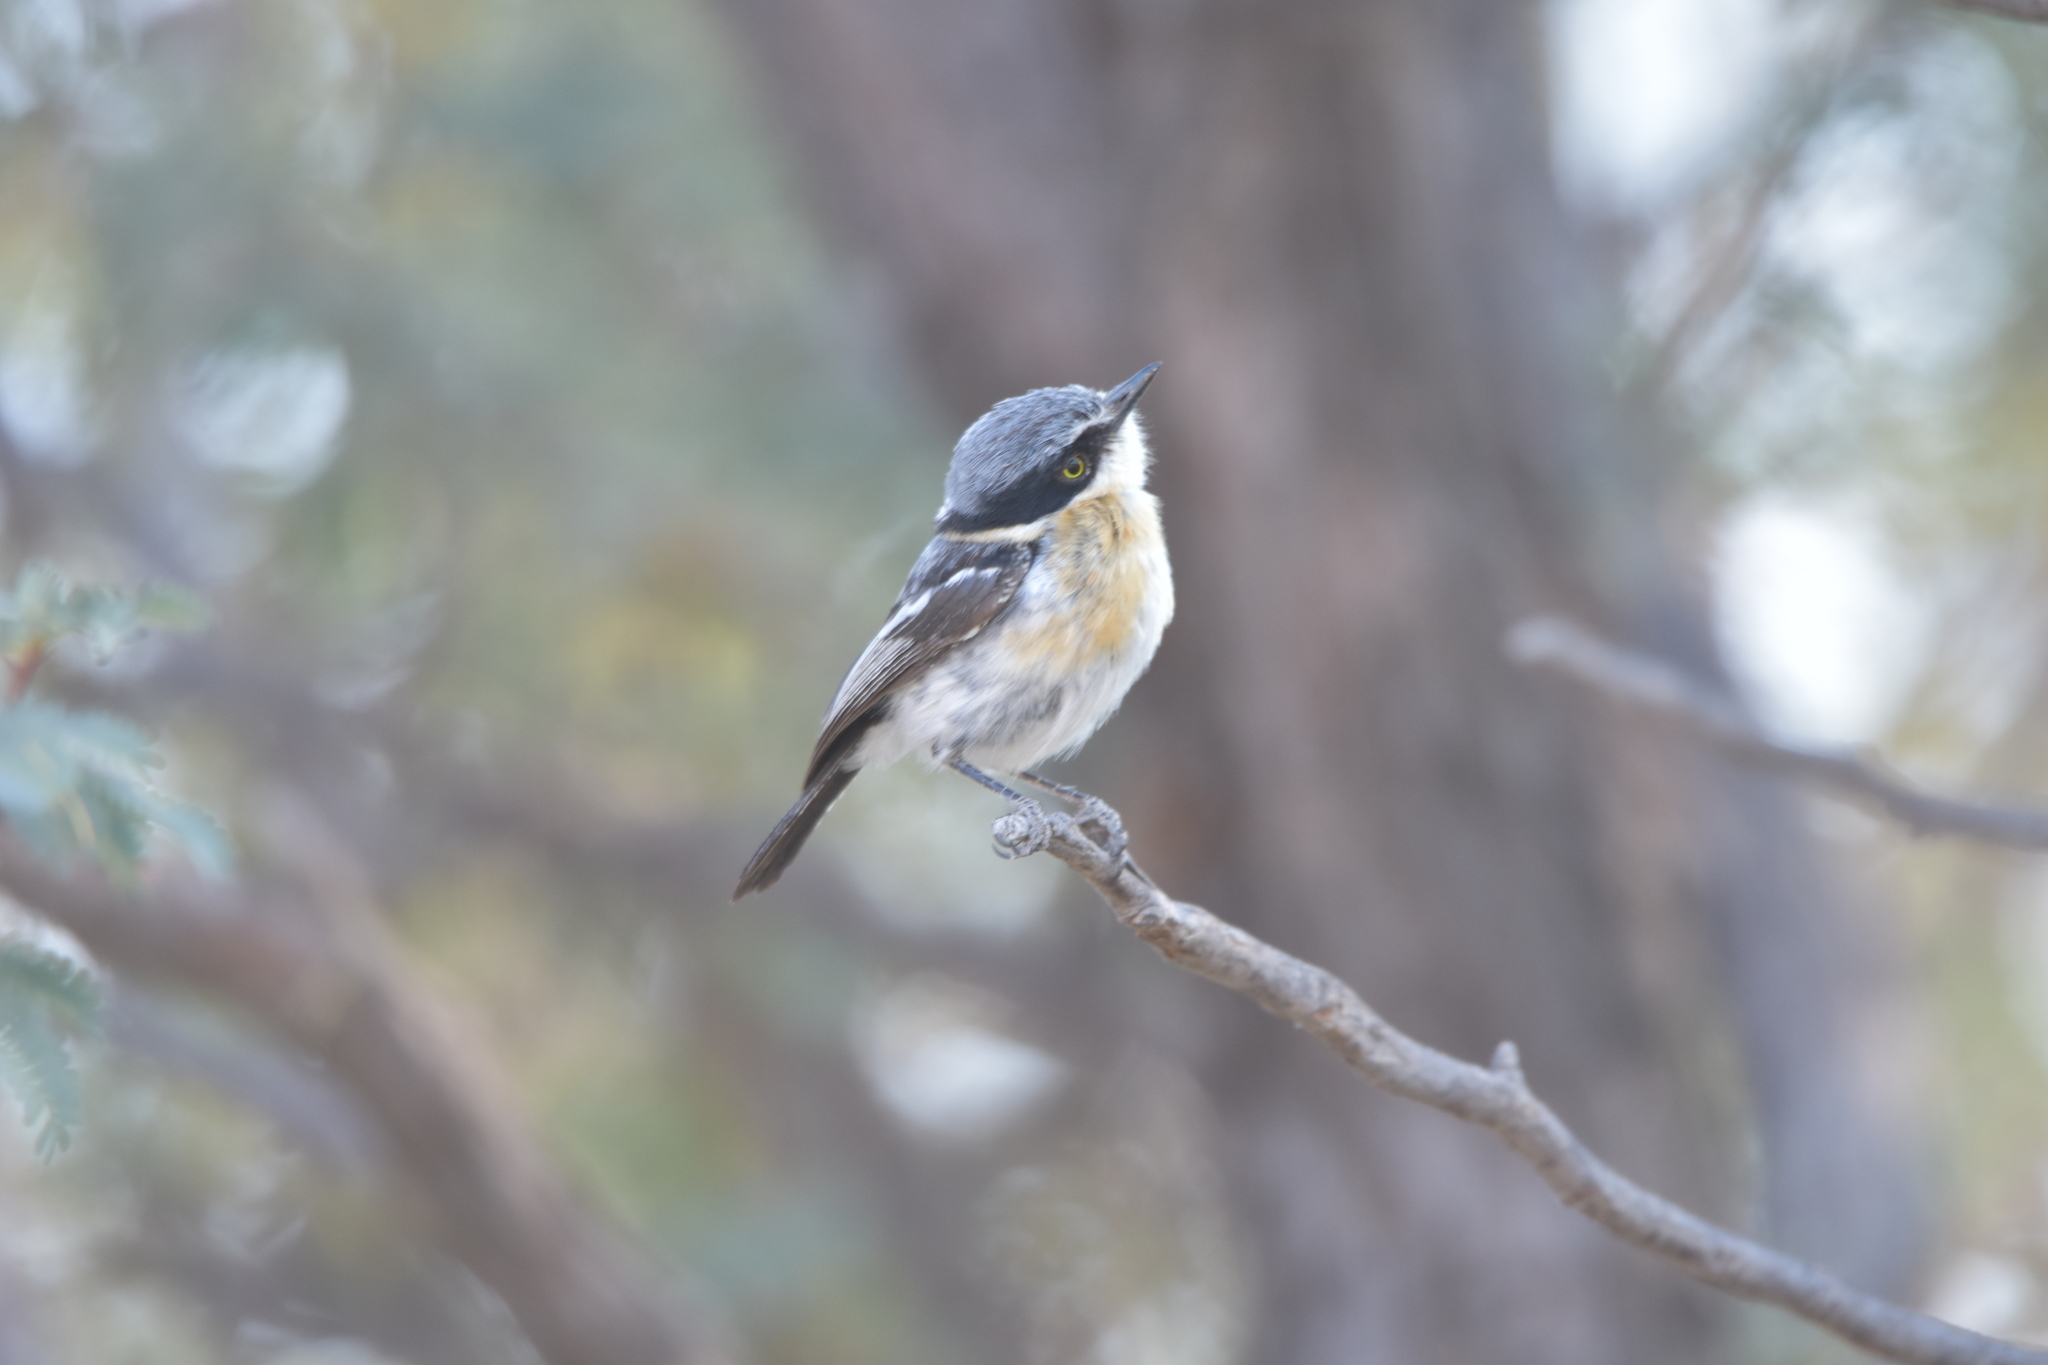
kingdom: Animalia
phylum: Chordata
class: Aves
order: Passeriformes
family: Platysteiridae
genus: Batis
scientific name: Batis pririt
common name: Pririt batis
